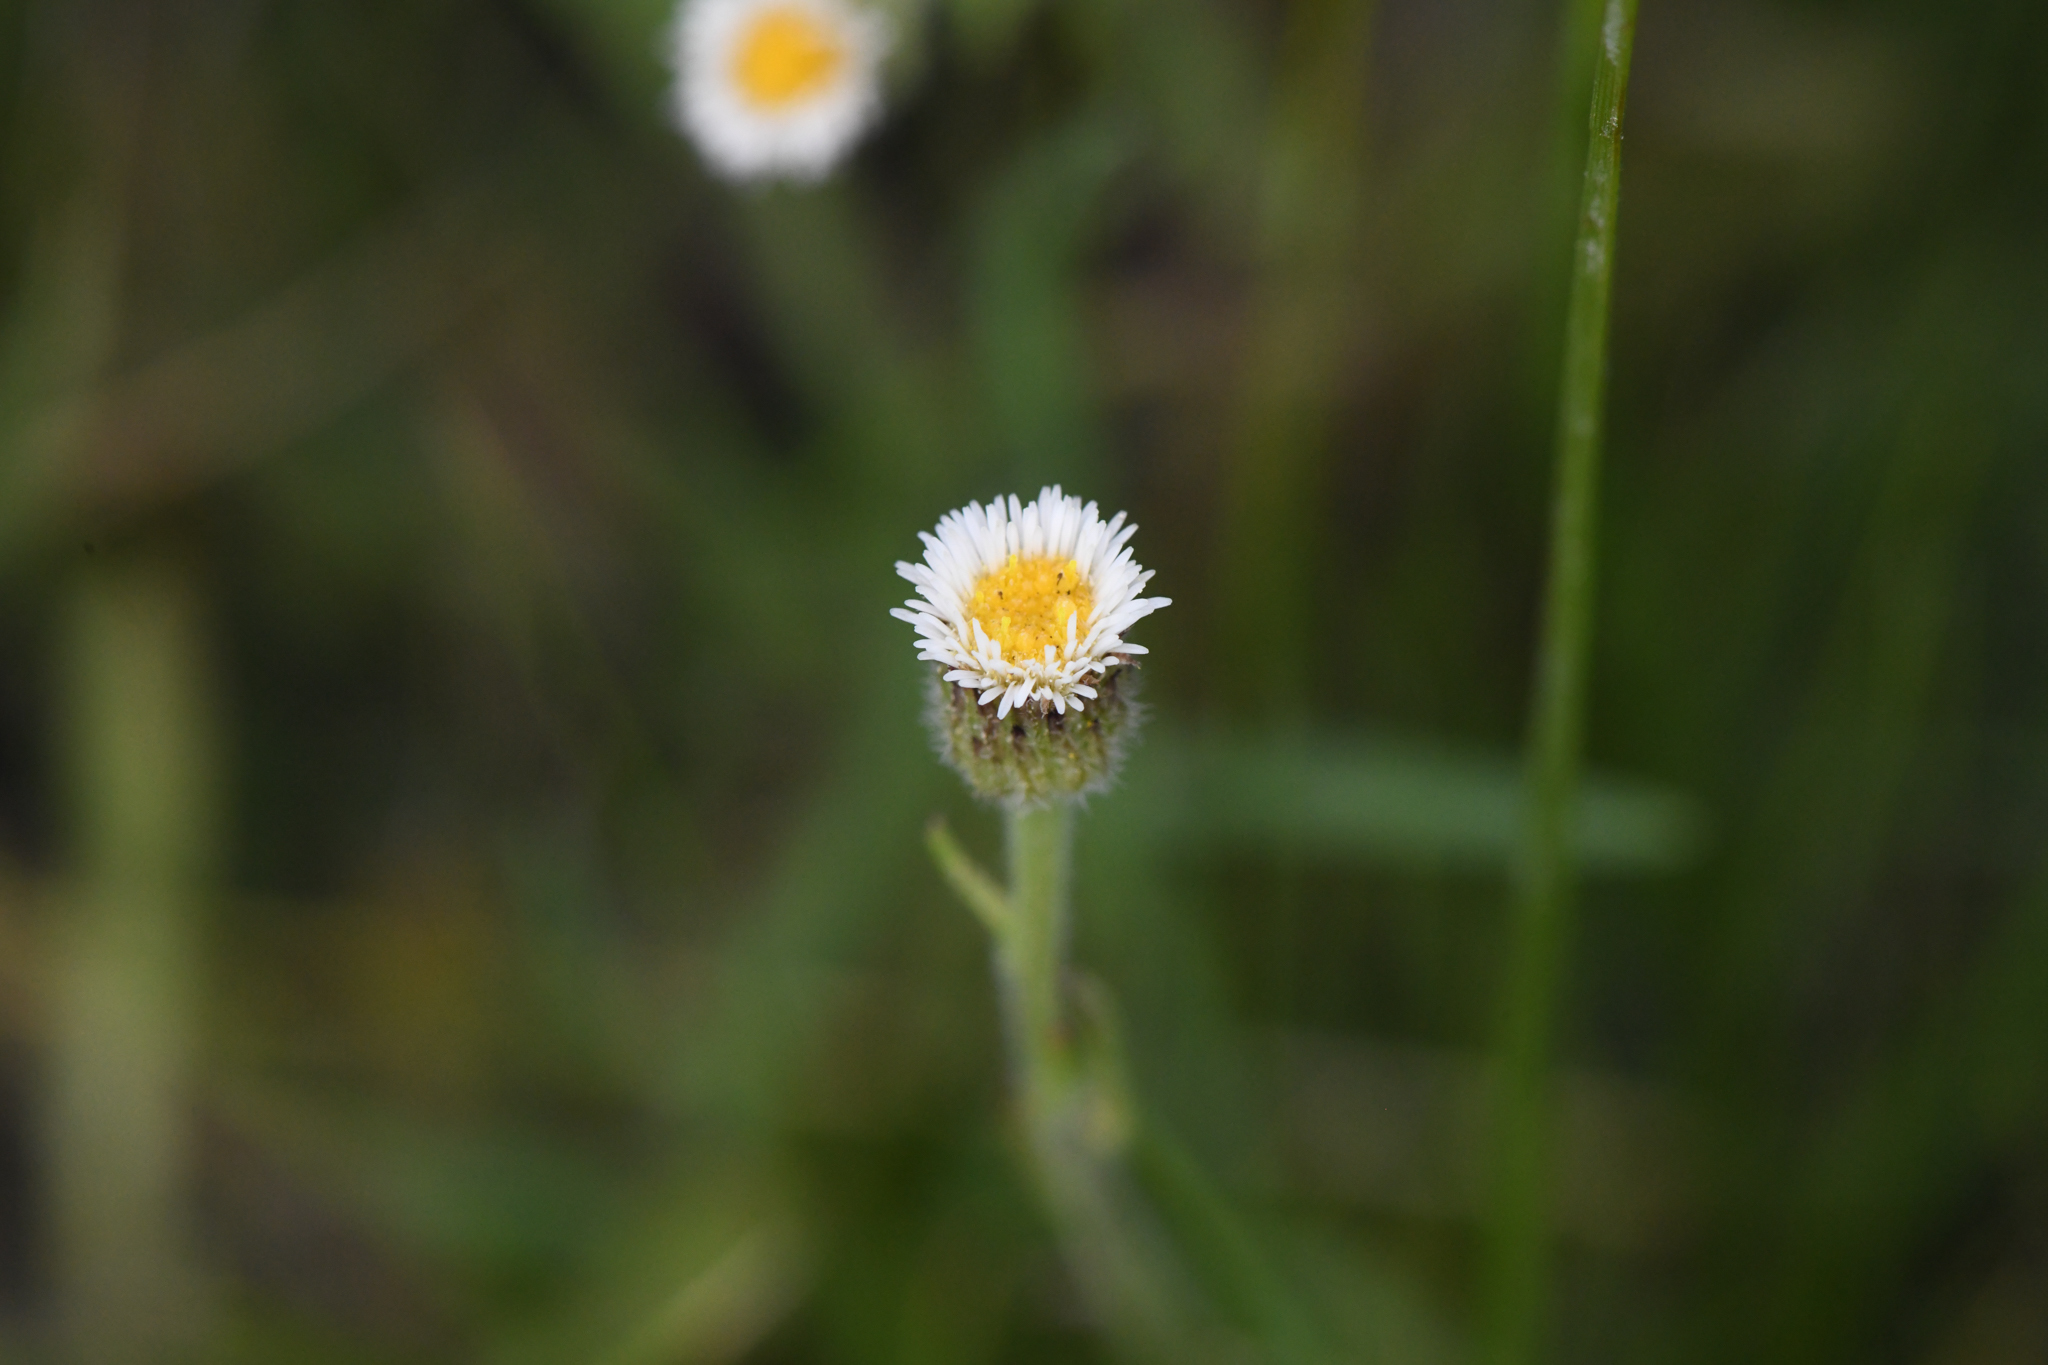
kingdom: Plantae
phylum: Tracheophyta
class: Magnoliopsida
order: Asterales
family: Asteraceae
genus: Erigeron
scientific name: Erigeron lonchophyllus
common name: Short-ray fleabane
